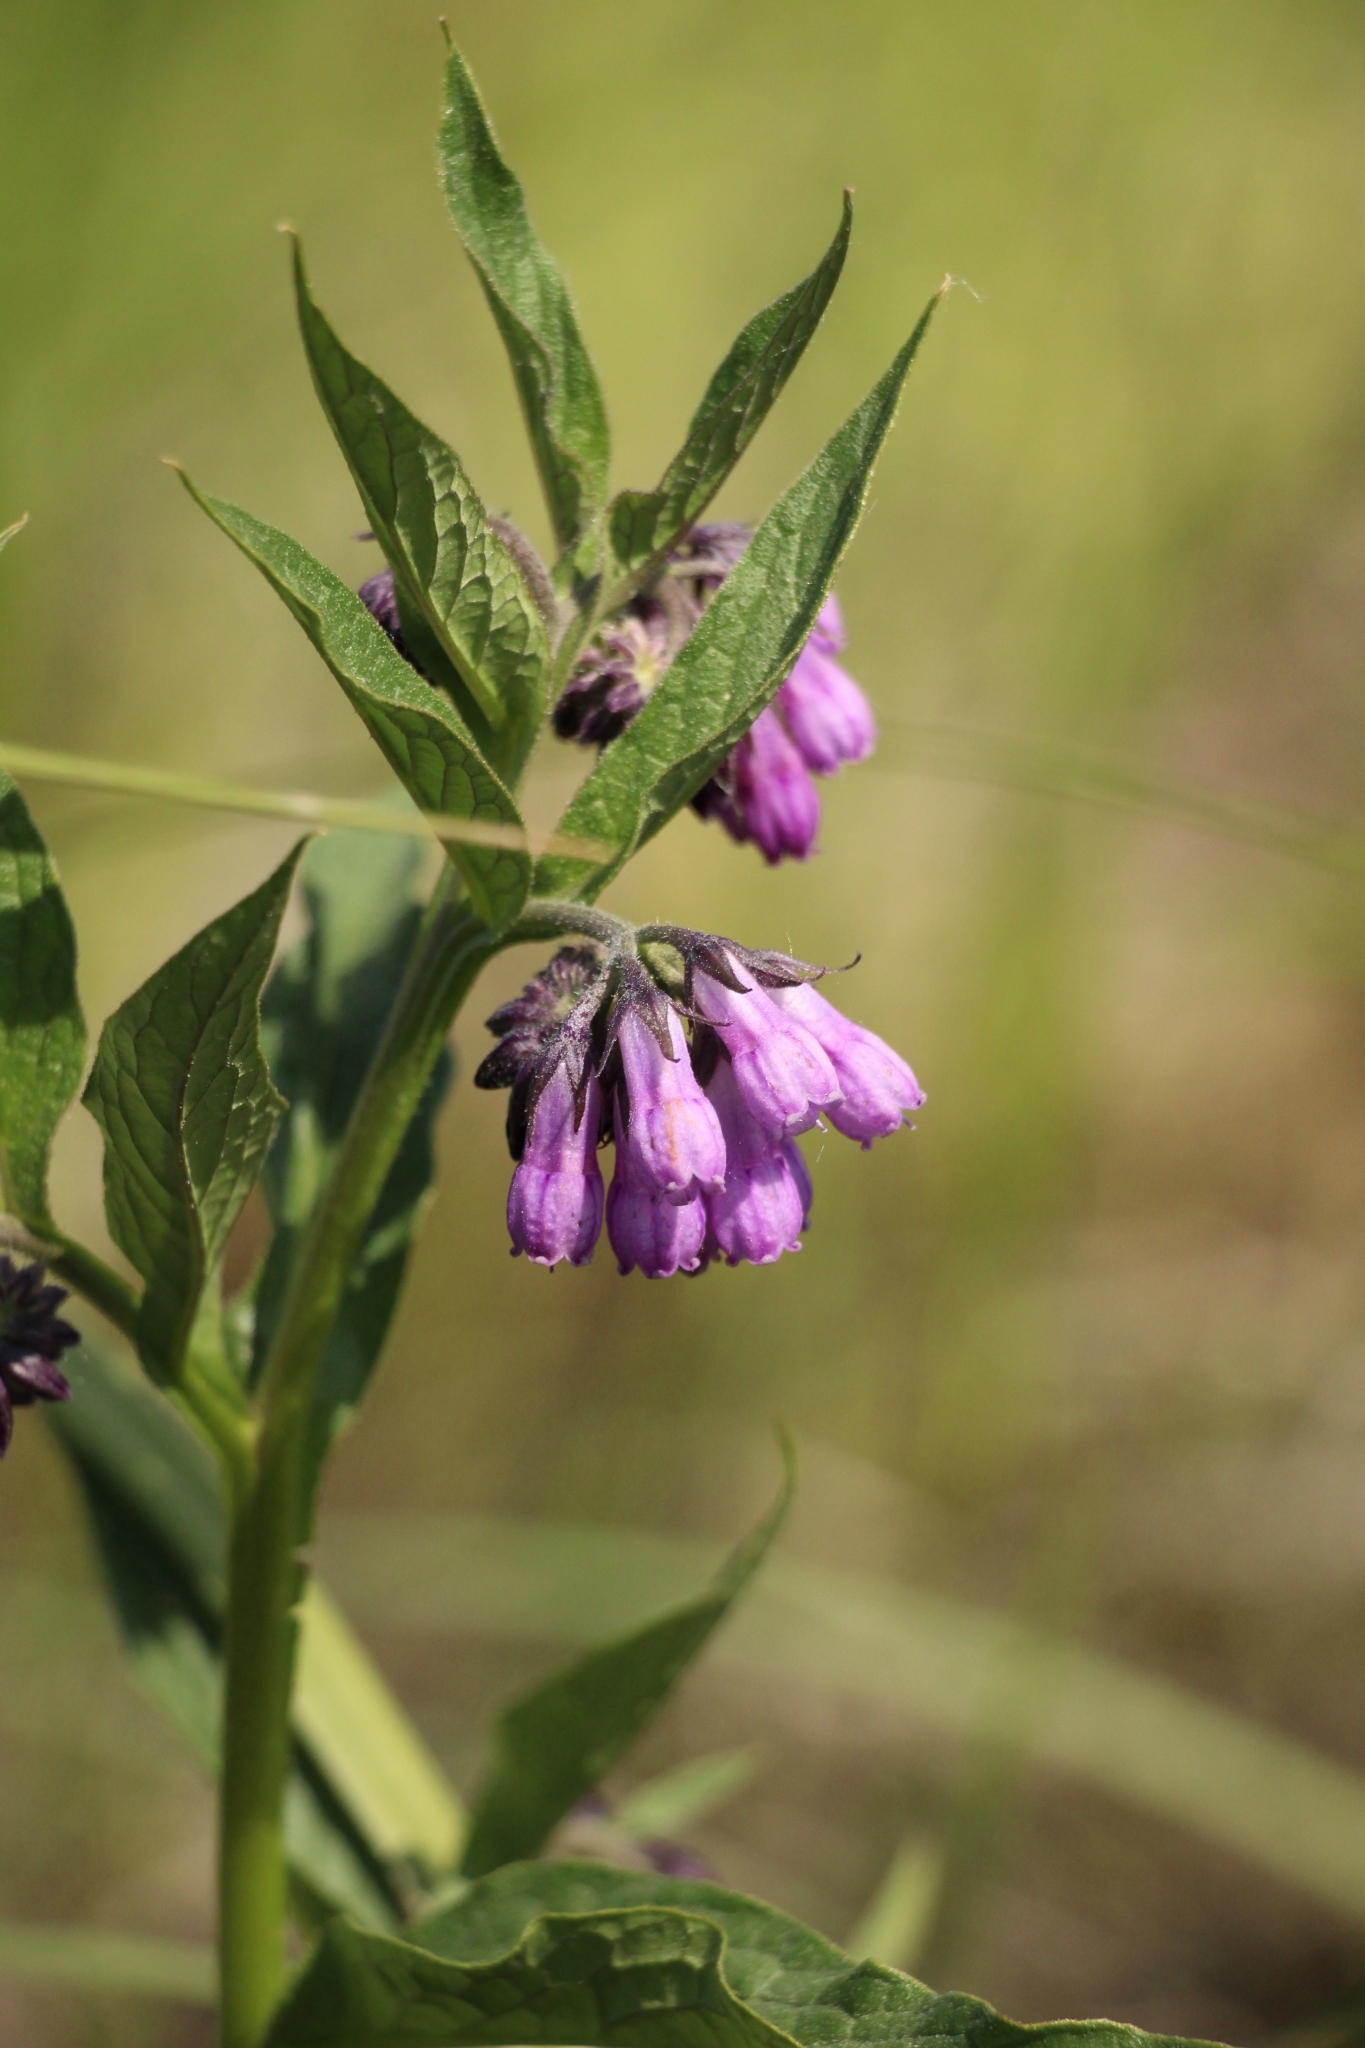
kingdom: Plantae
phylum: Tracheophyta
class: Magnoliopsida
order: Boraginales
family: Boraginaceae
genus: Symphytum
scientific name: Symphytum officinale
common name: Common comfrey
